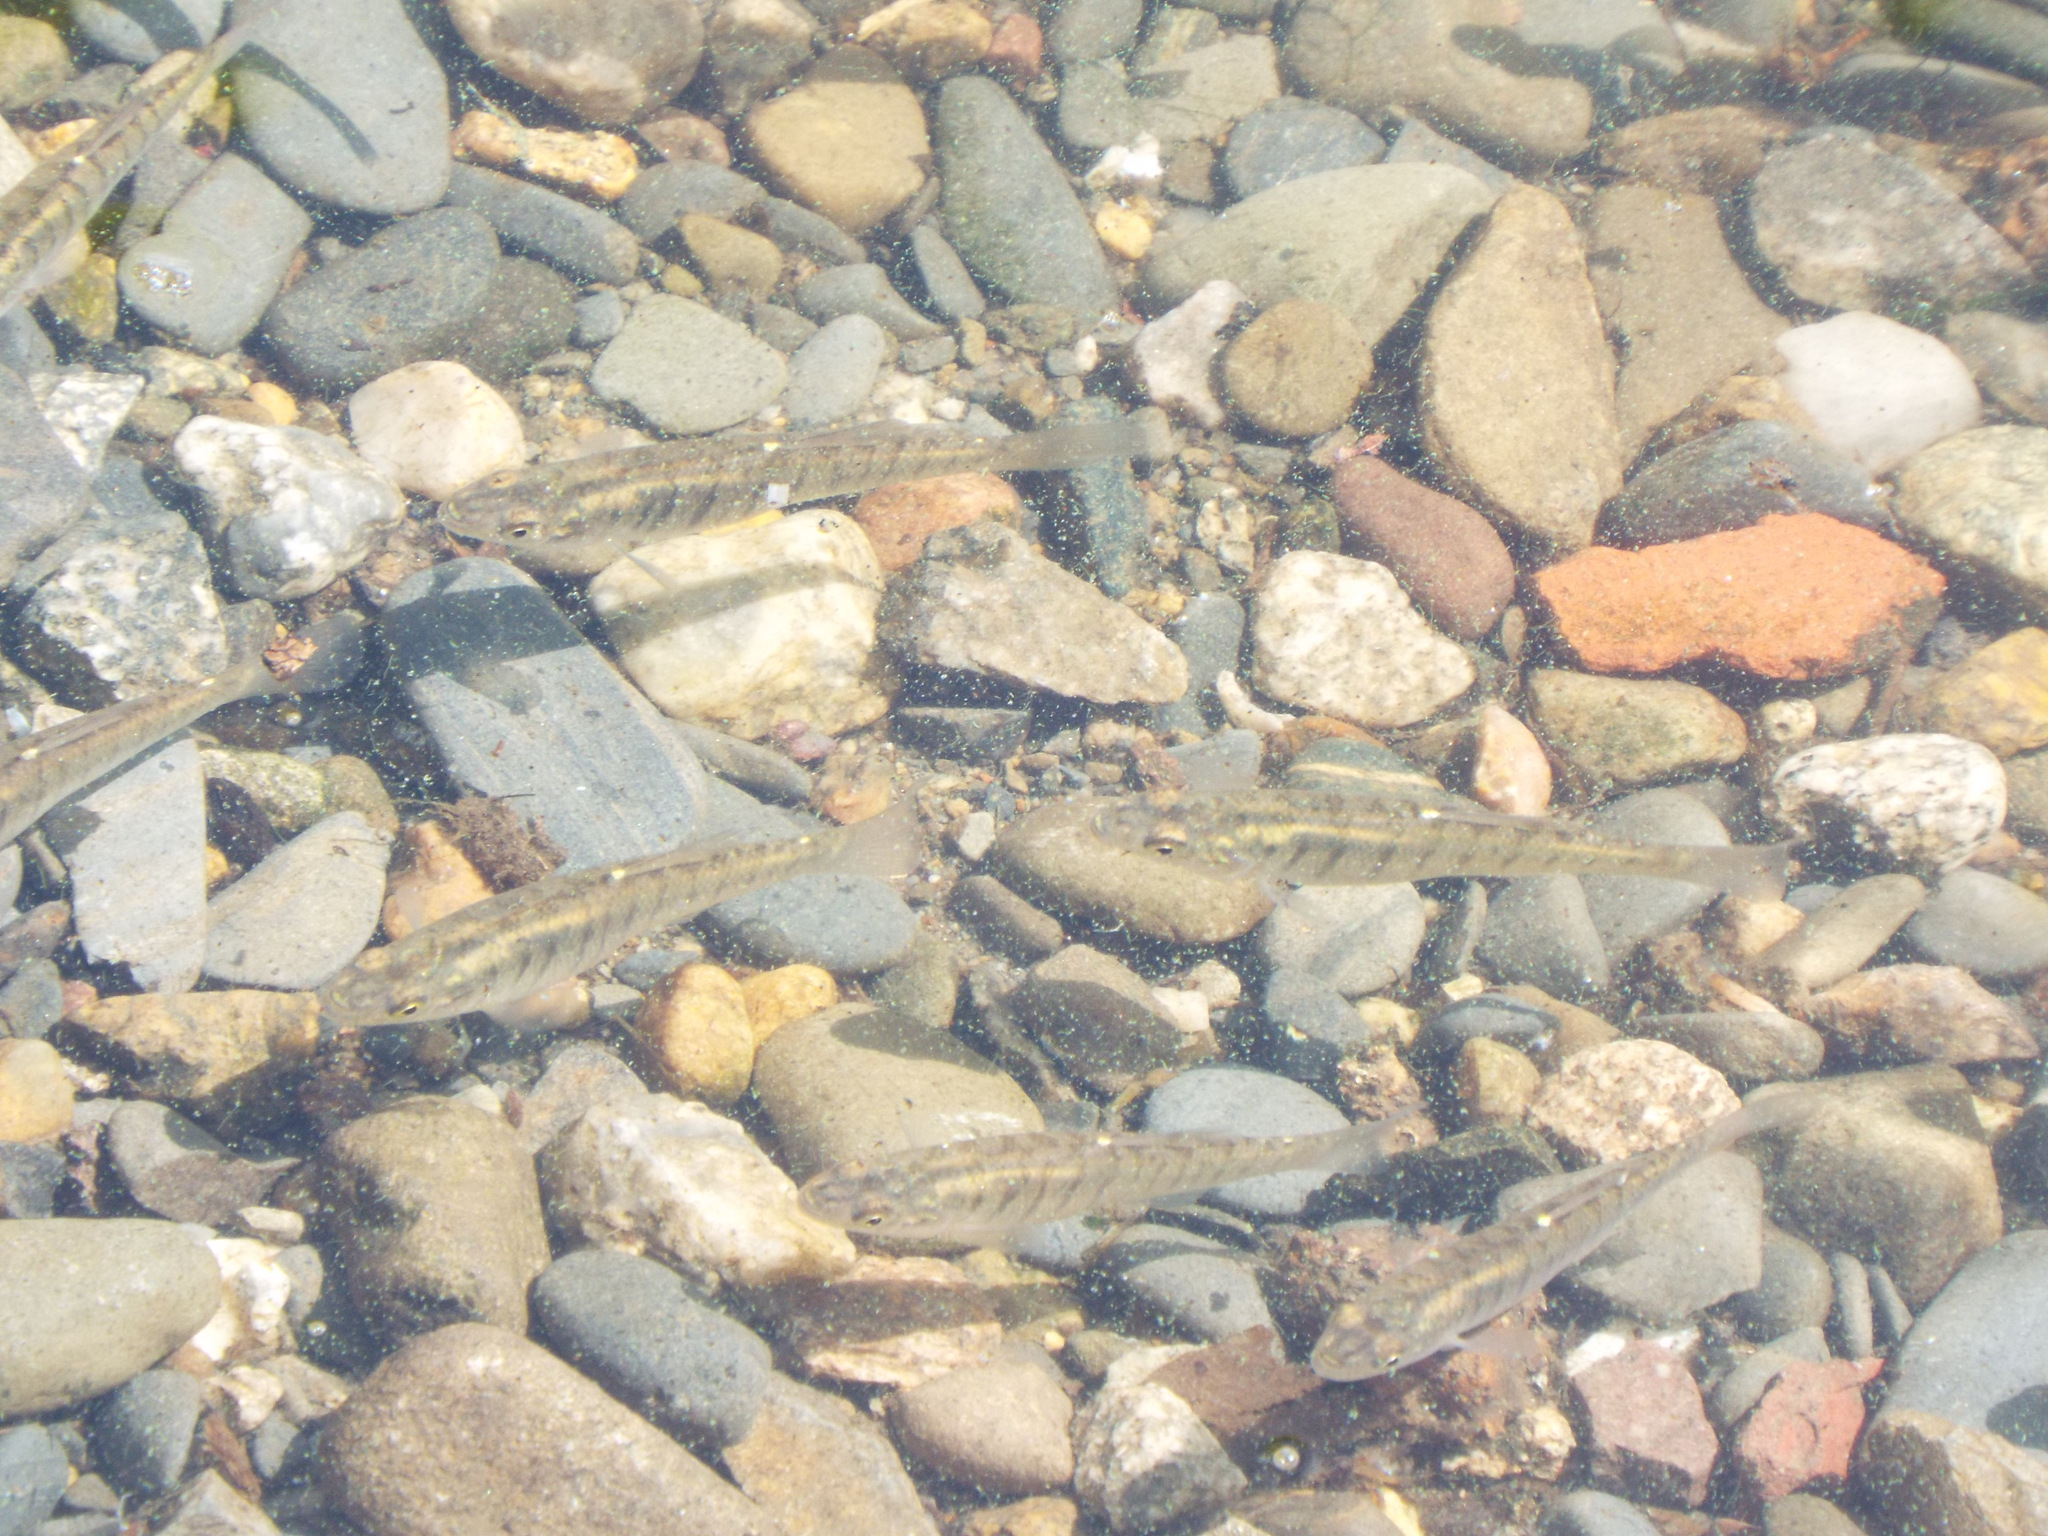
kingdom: Animalia
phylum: Chordata
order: Cyprinodontiformes
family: Fundulidae
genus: Fundulus
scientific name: Fundulus diaphanus
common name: Banded killifish
